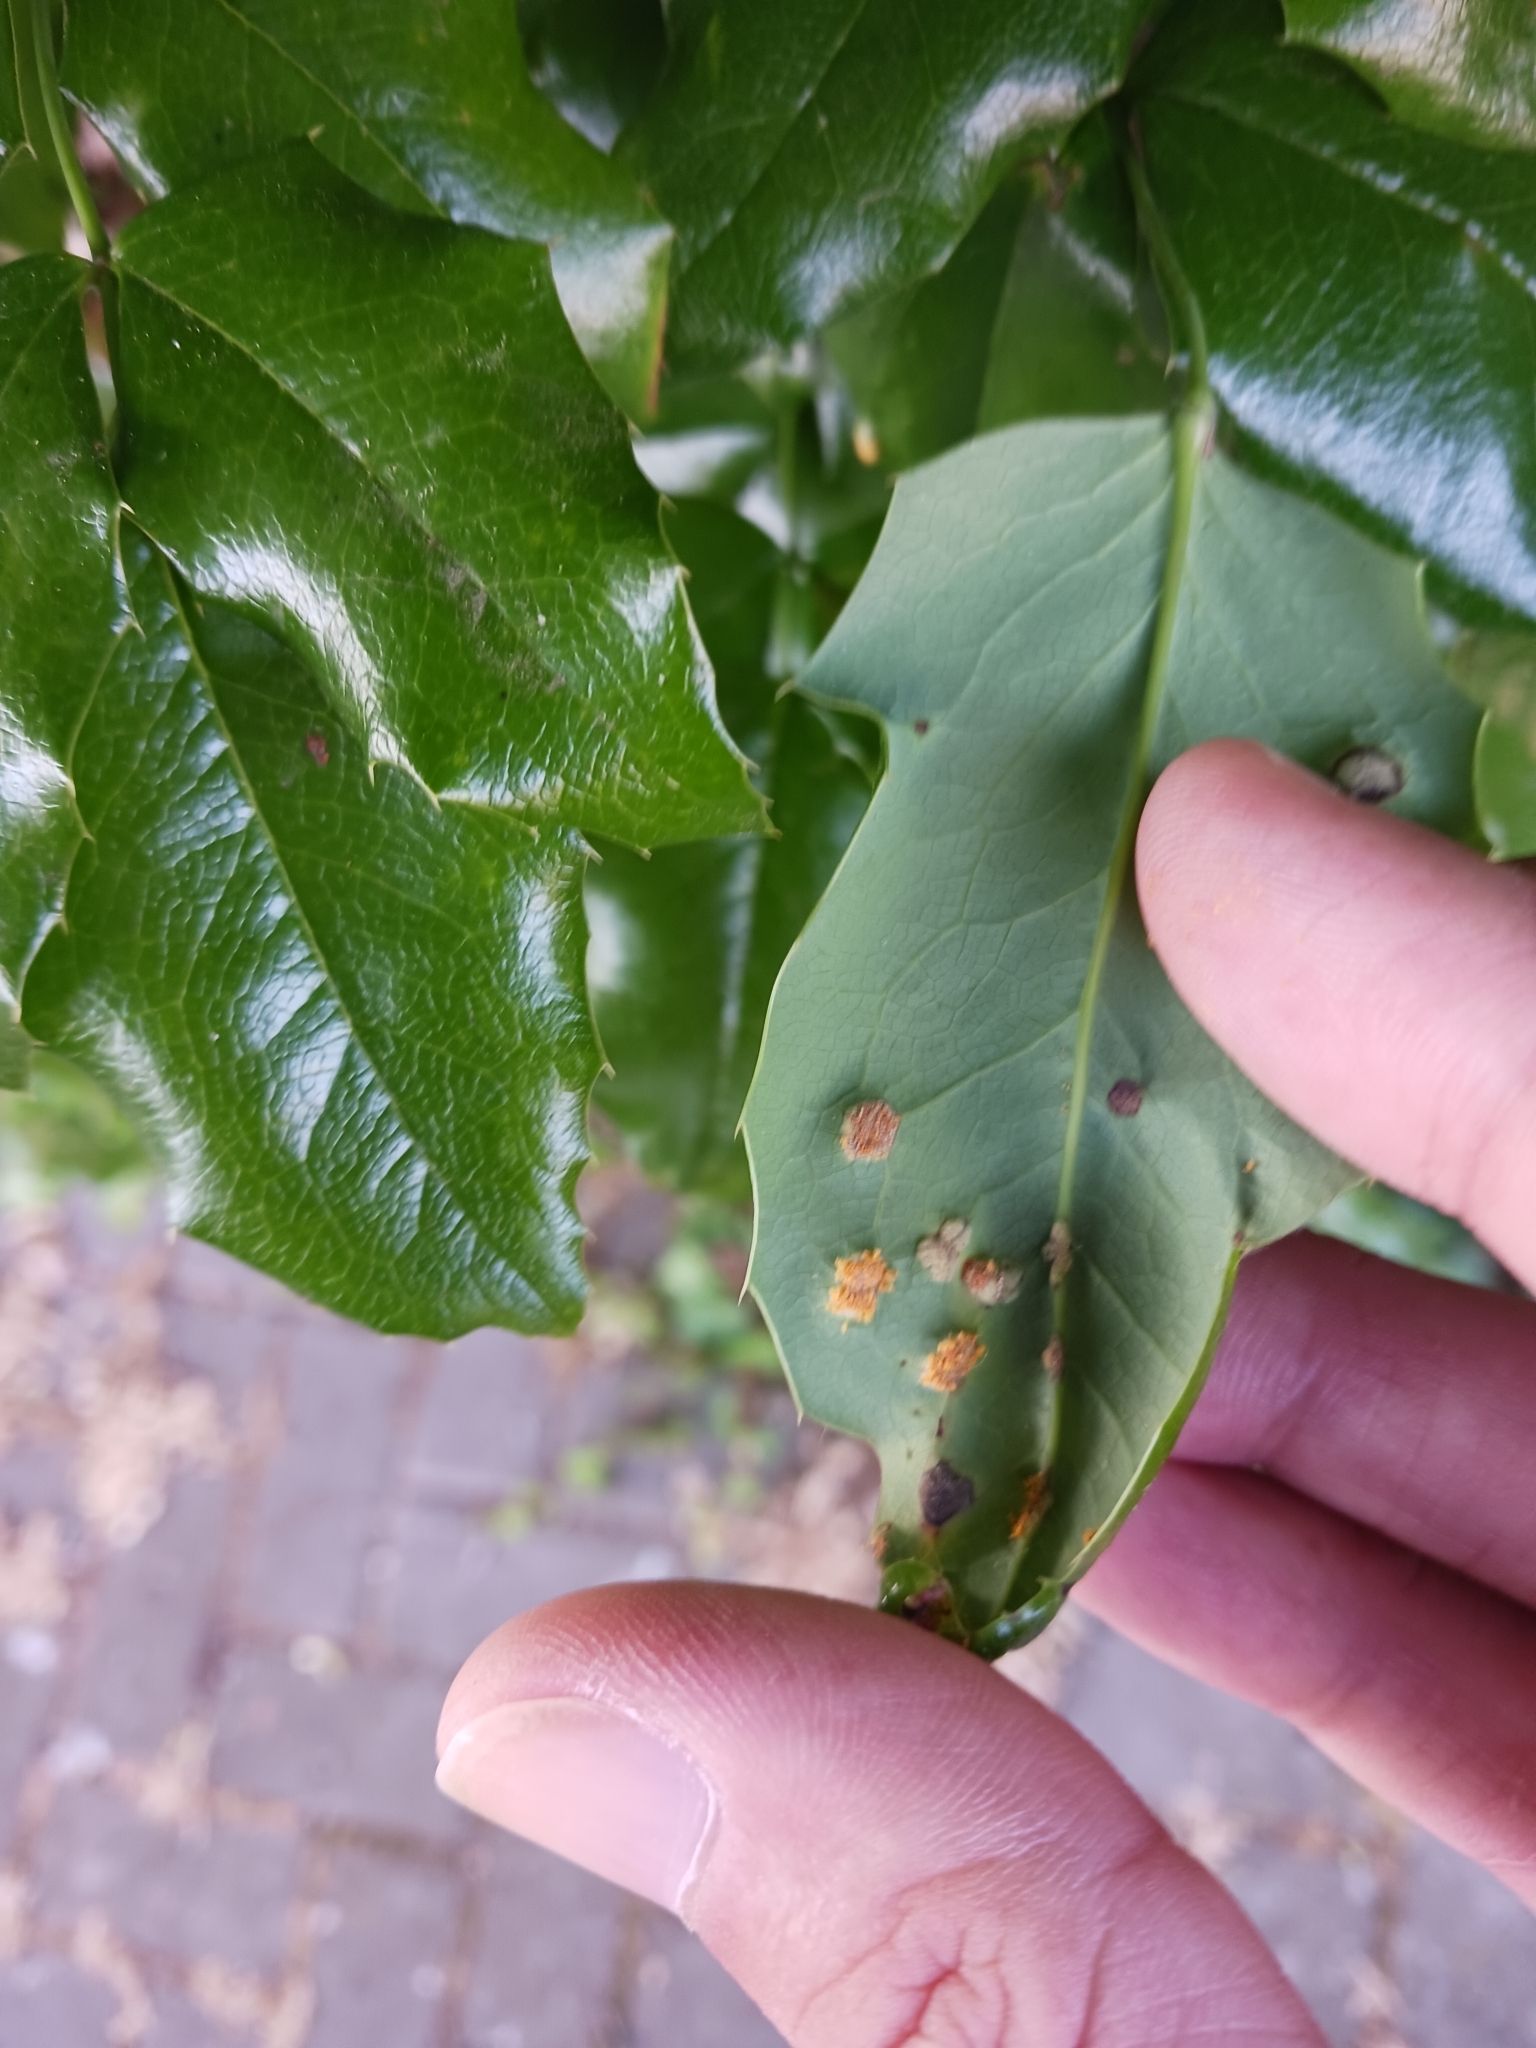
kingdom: Fungi
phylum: Basidiomycota
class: Pucciniomycetes
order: Pucciniales
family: Pucciniaceae
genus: Cumminsiella
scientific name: Cumminsiella mirabilissima
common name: Mahonia rust
